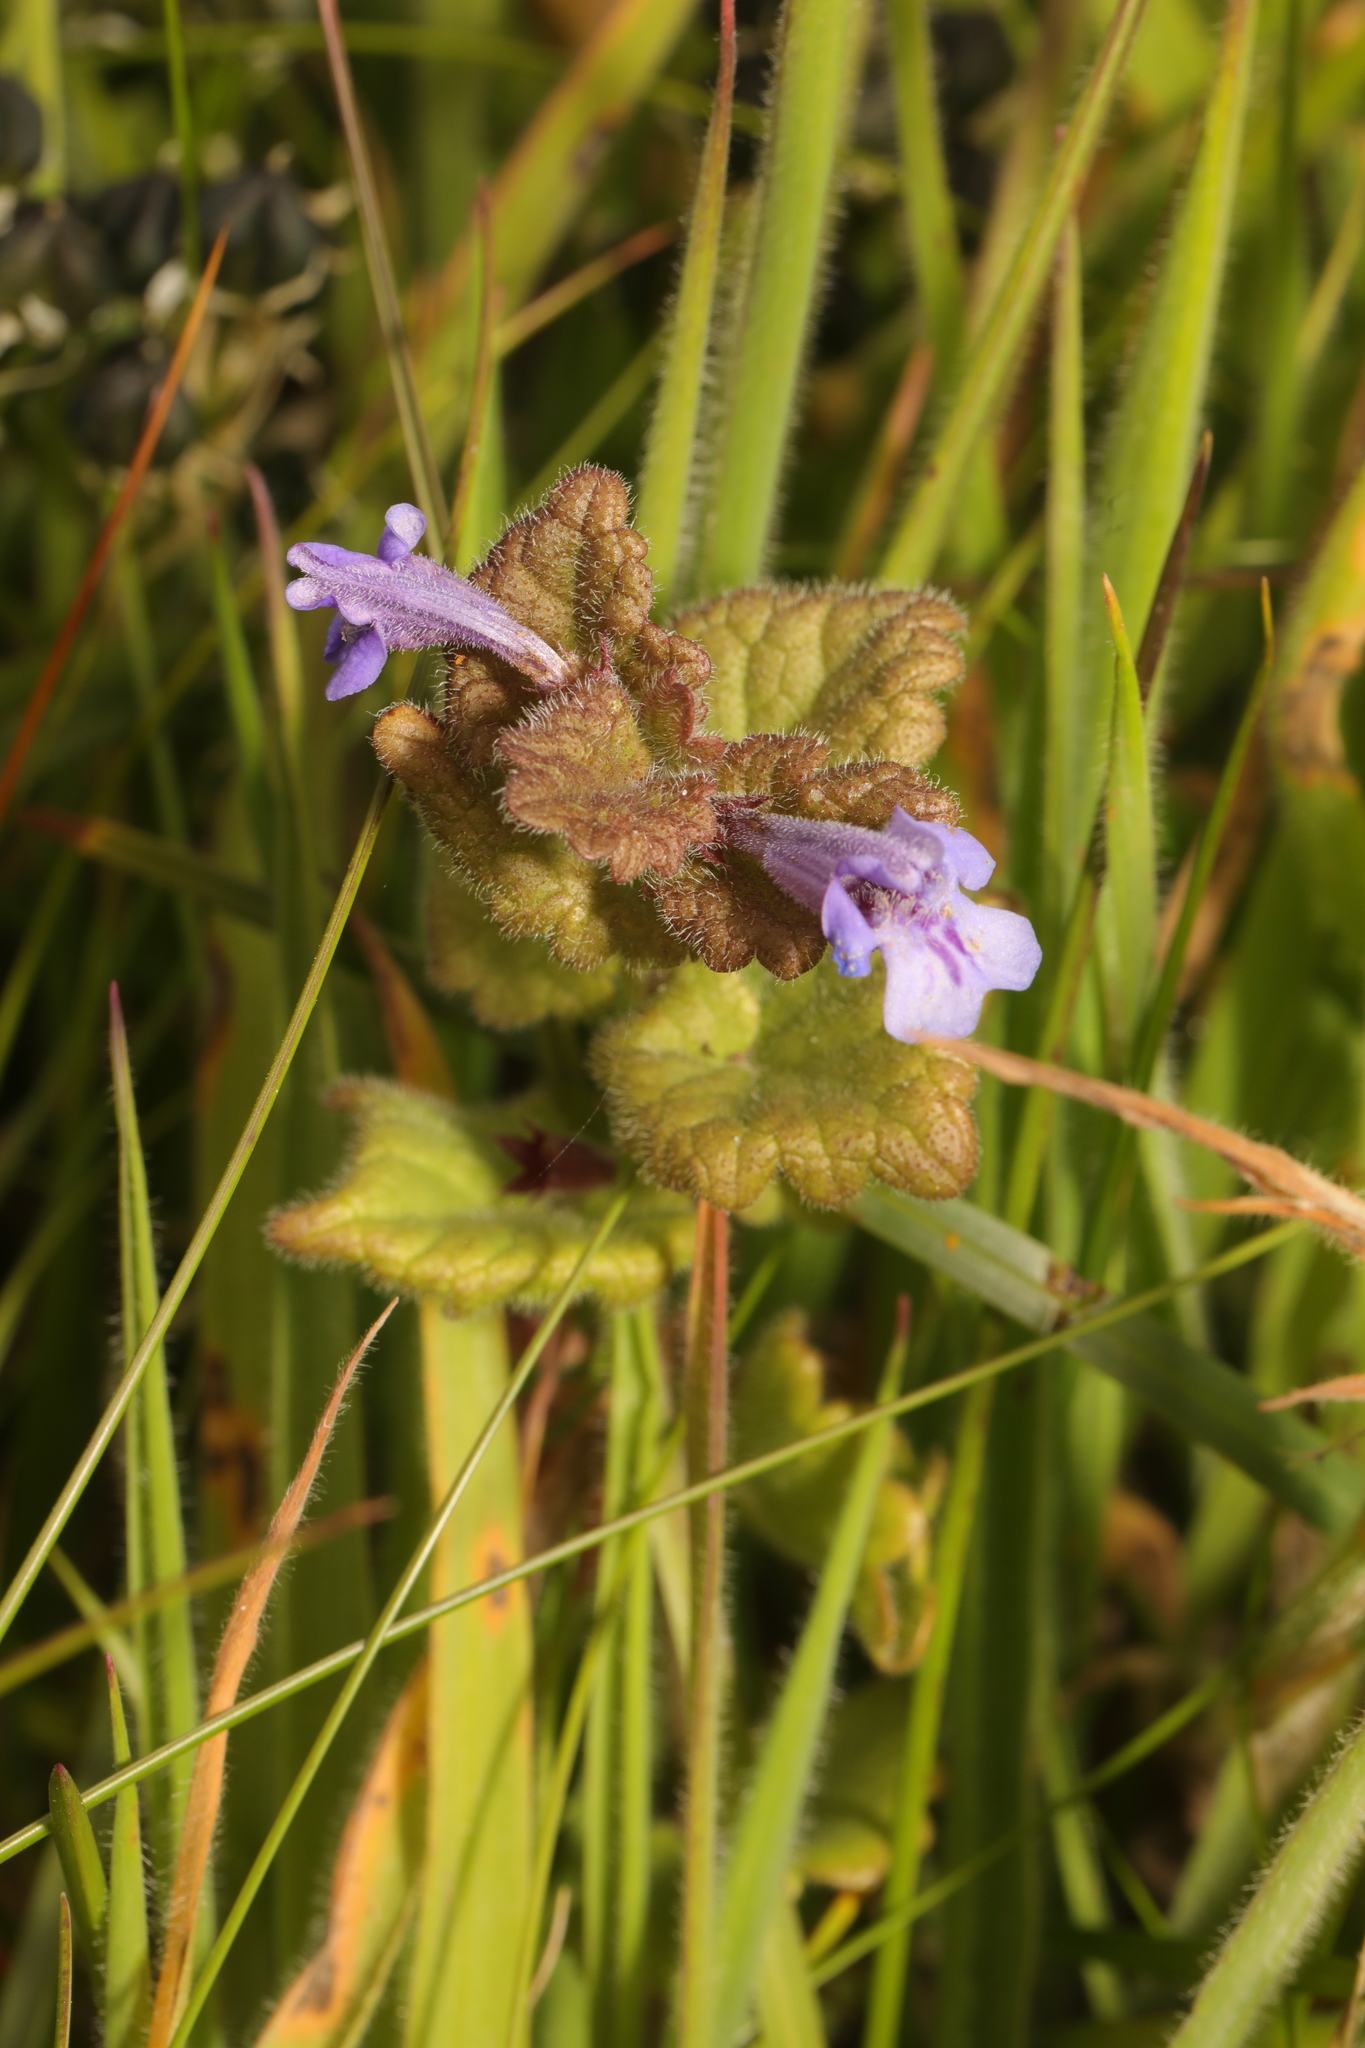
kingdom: Plantae
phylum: Tracheophyta
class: Magnoliopsida
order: Lamiales
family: Lamiaceae
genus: Glechoma
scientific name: Glechoma hederacea
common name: Ground ivy
